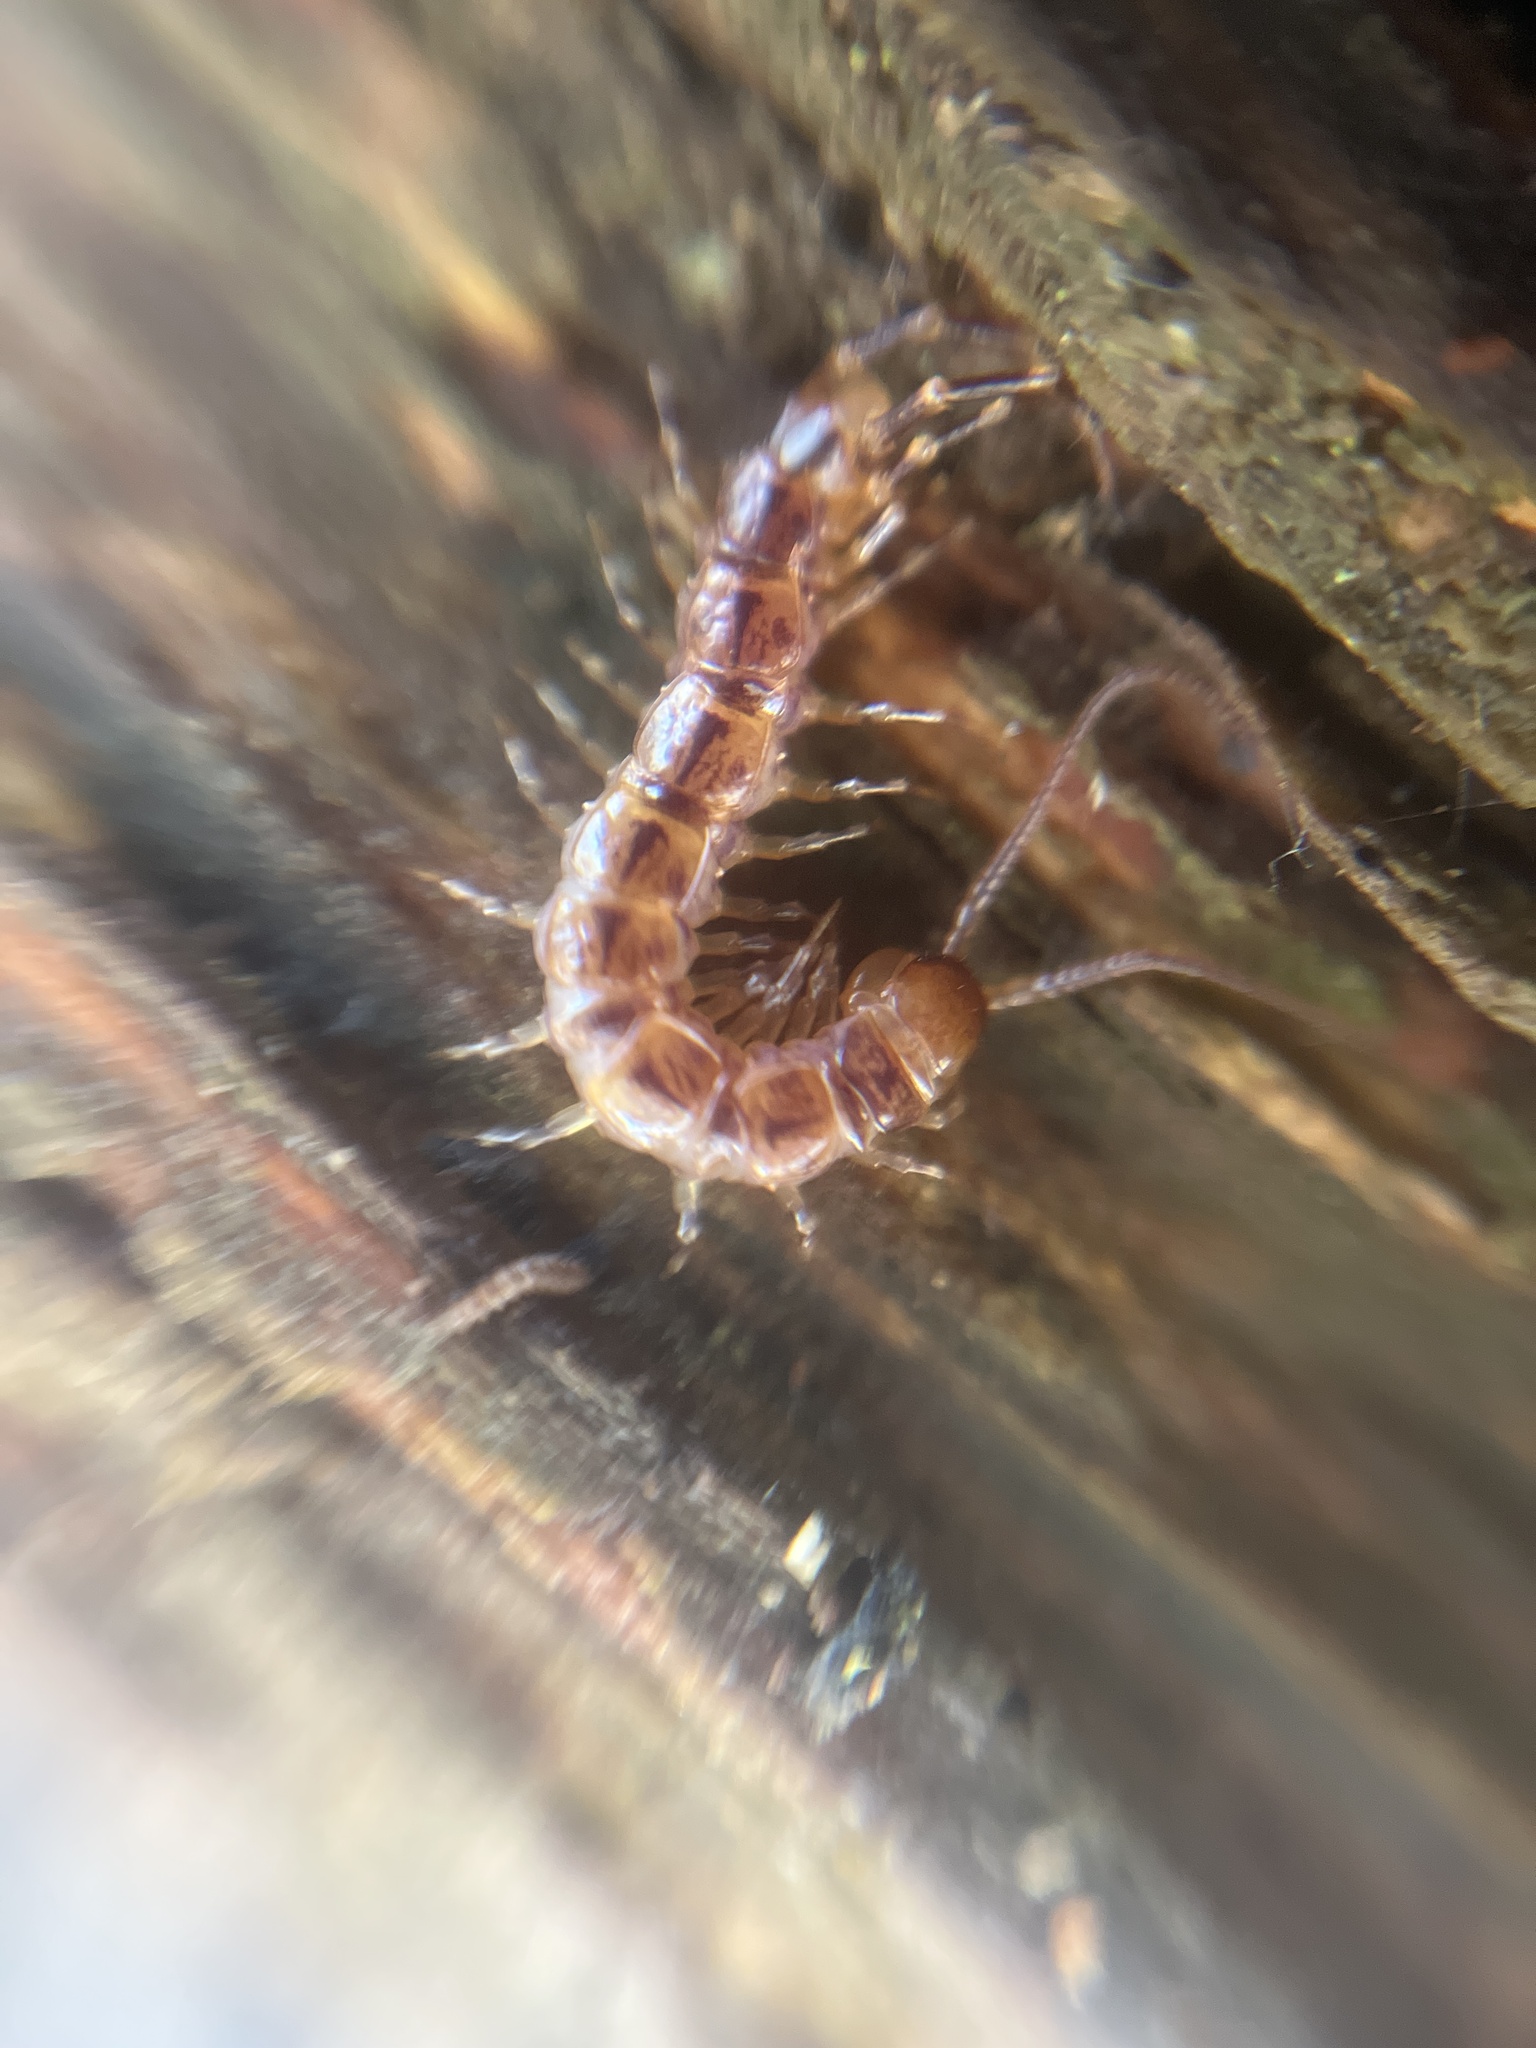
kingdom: Animalia
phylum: Arthropoda
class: Chilopoda
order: Lithobiomorpha
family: Lithobiidae
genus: Lithobius
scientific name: Lithobius variegatus
